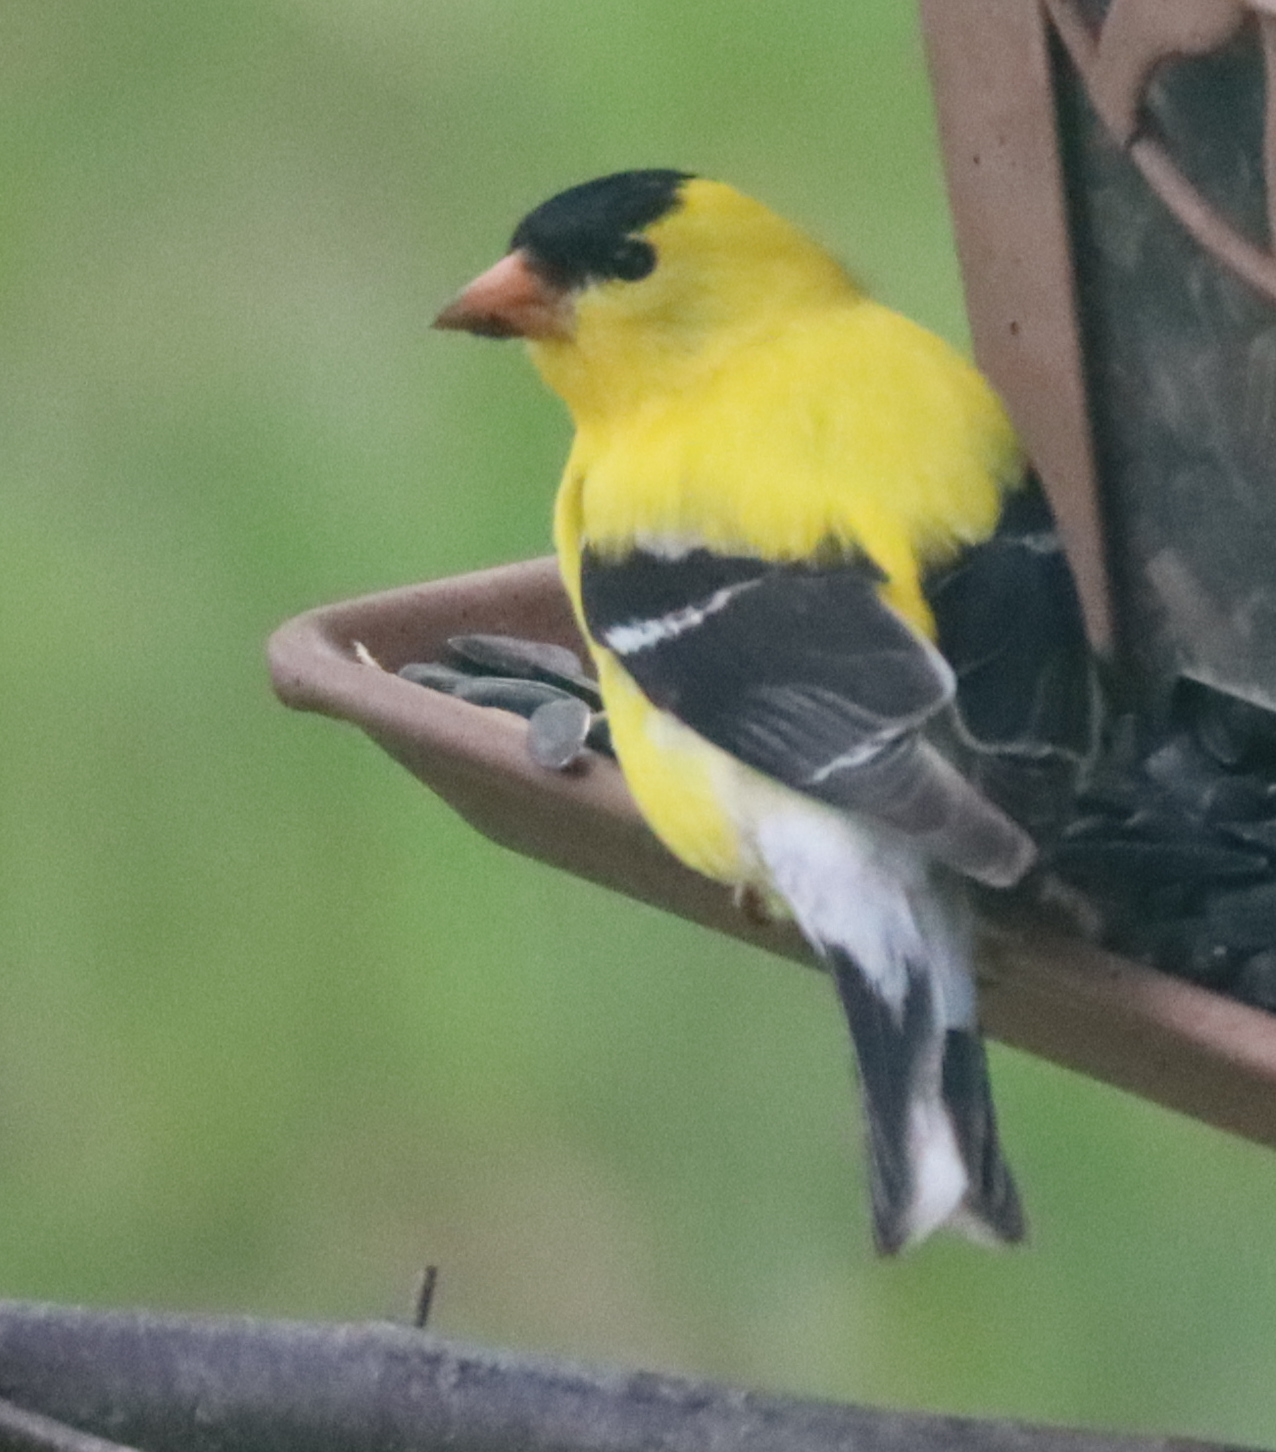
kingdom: Animalia
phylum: Chordata
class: Aves
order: Passeriformes
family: Fringillidae
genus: Spinus
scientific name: Spinus tristis
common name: American goldfinch
